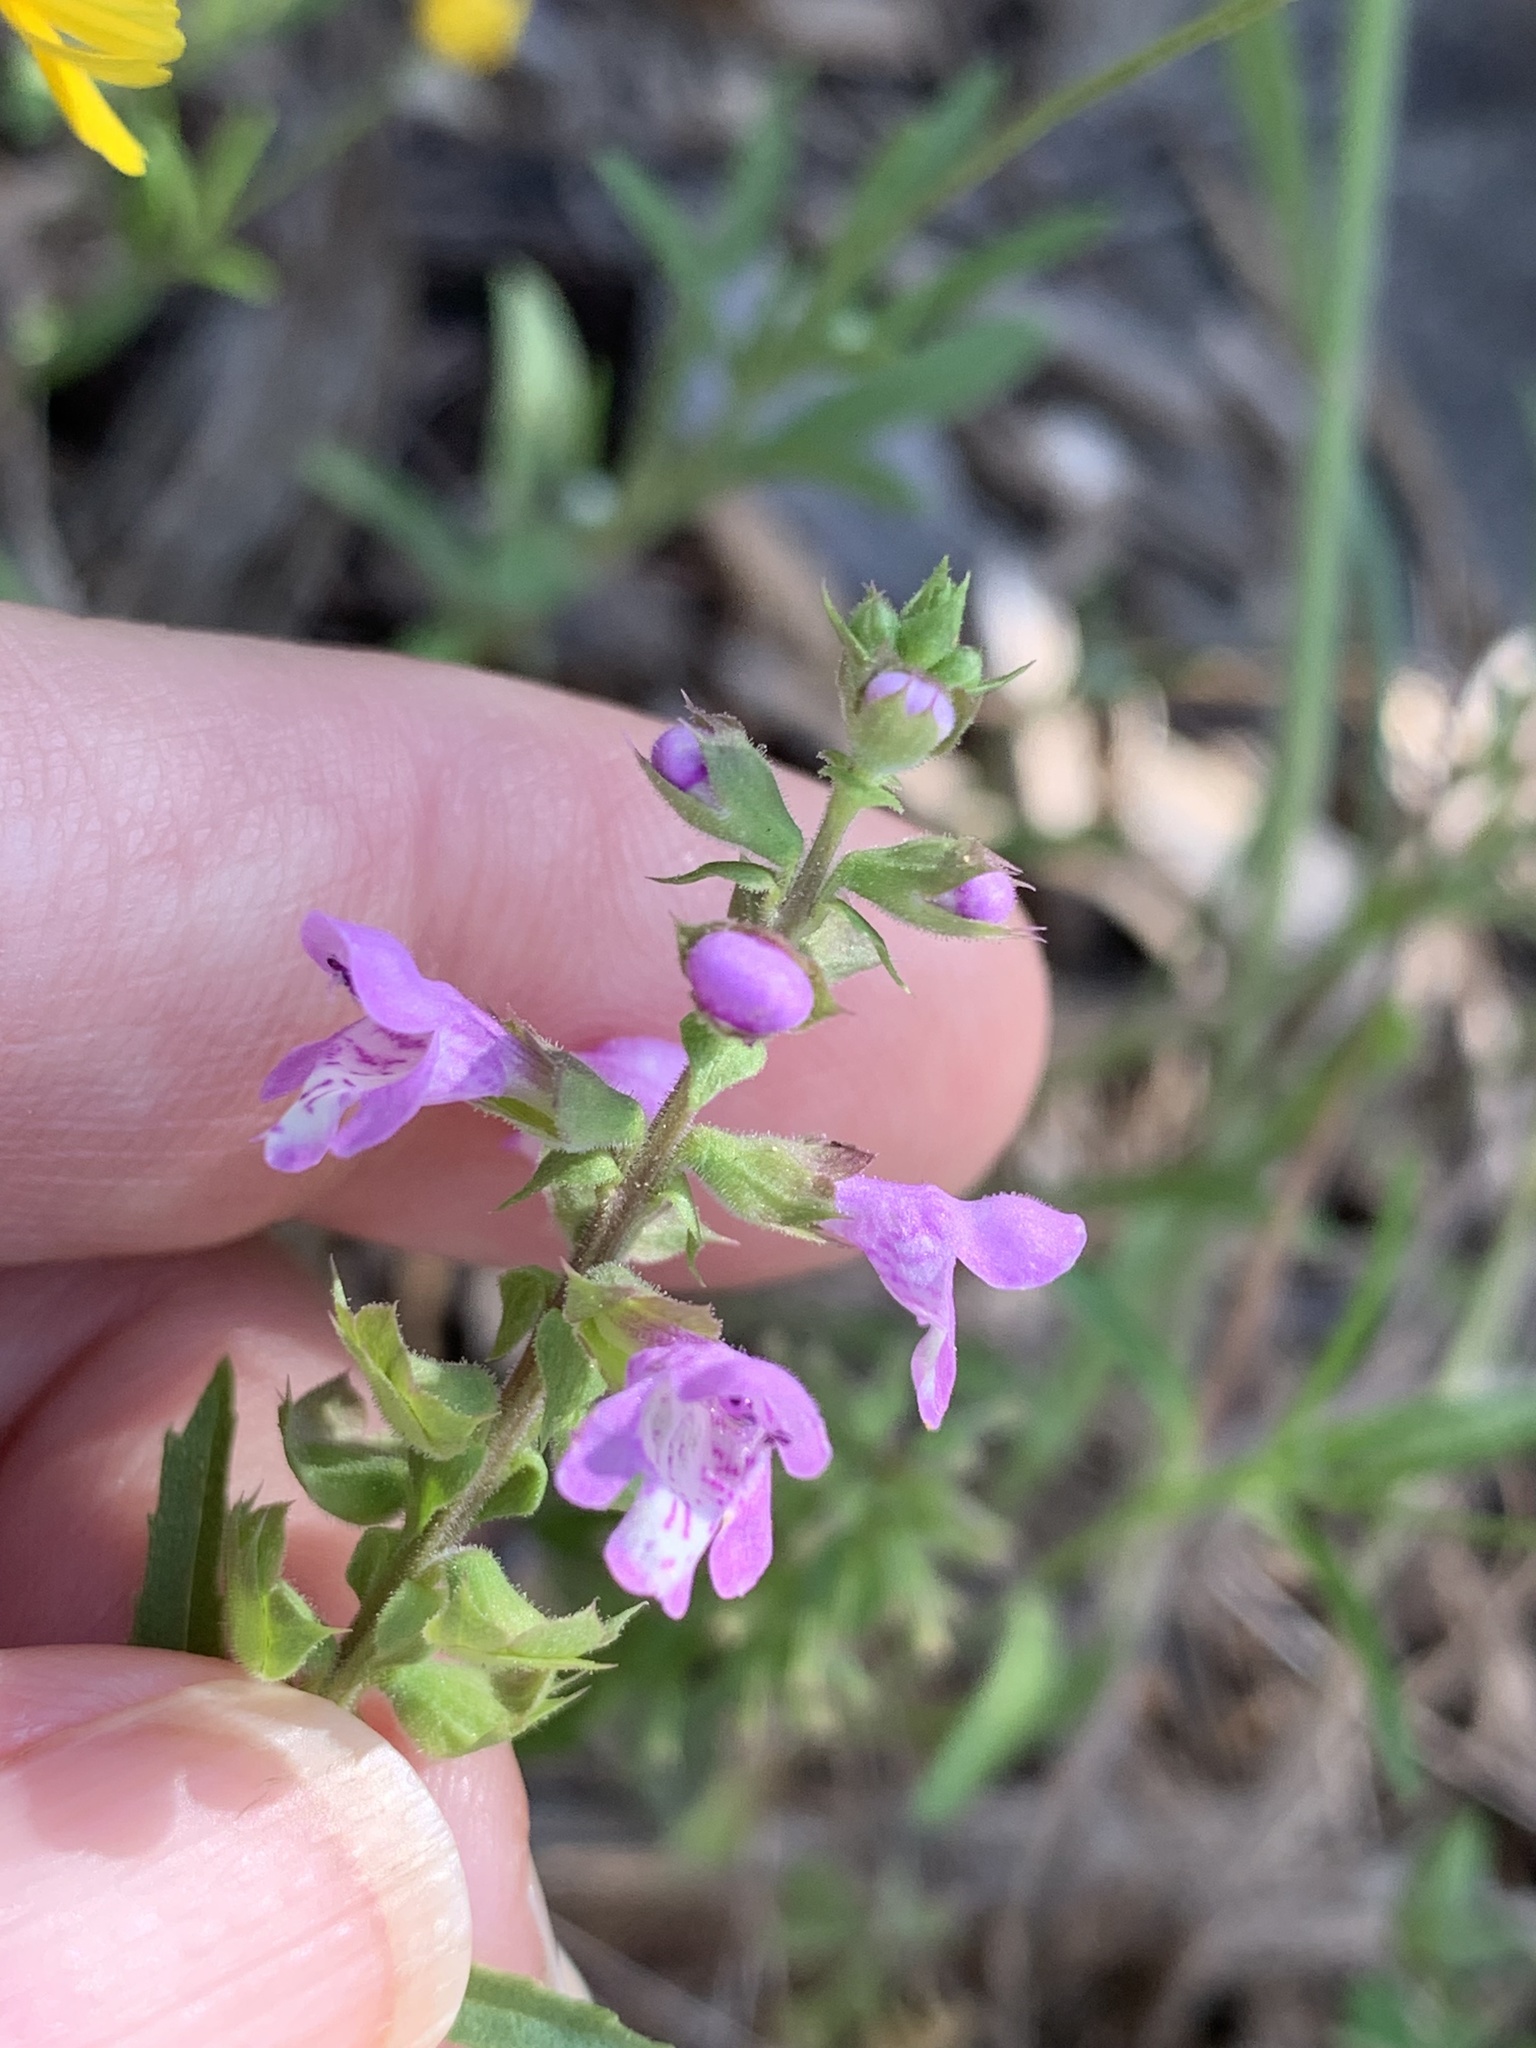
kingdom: Plantae
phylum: Tracheophyta
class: Magnoliopsida
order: Lamiales
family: Lamiaceae
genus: Warnockia
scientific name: Warnockia scutellarioides
